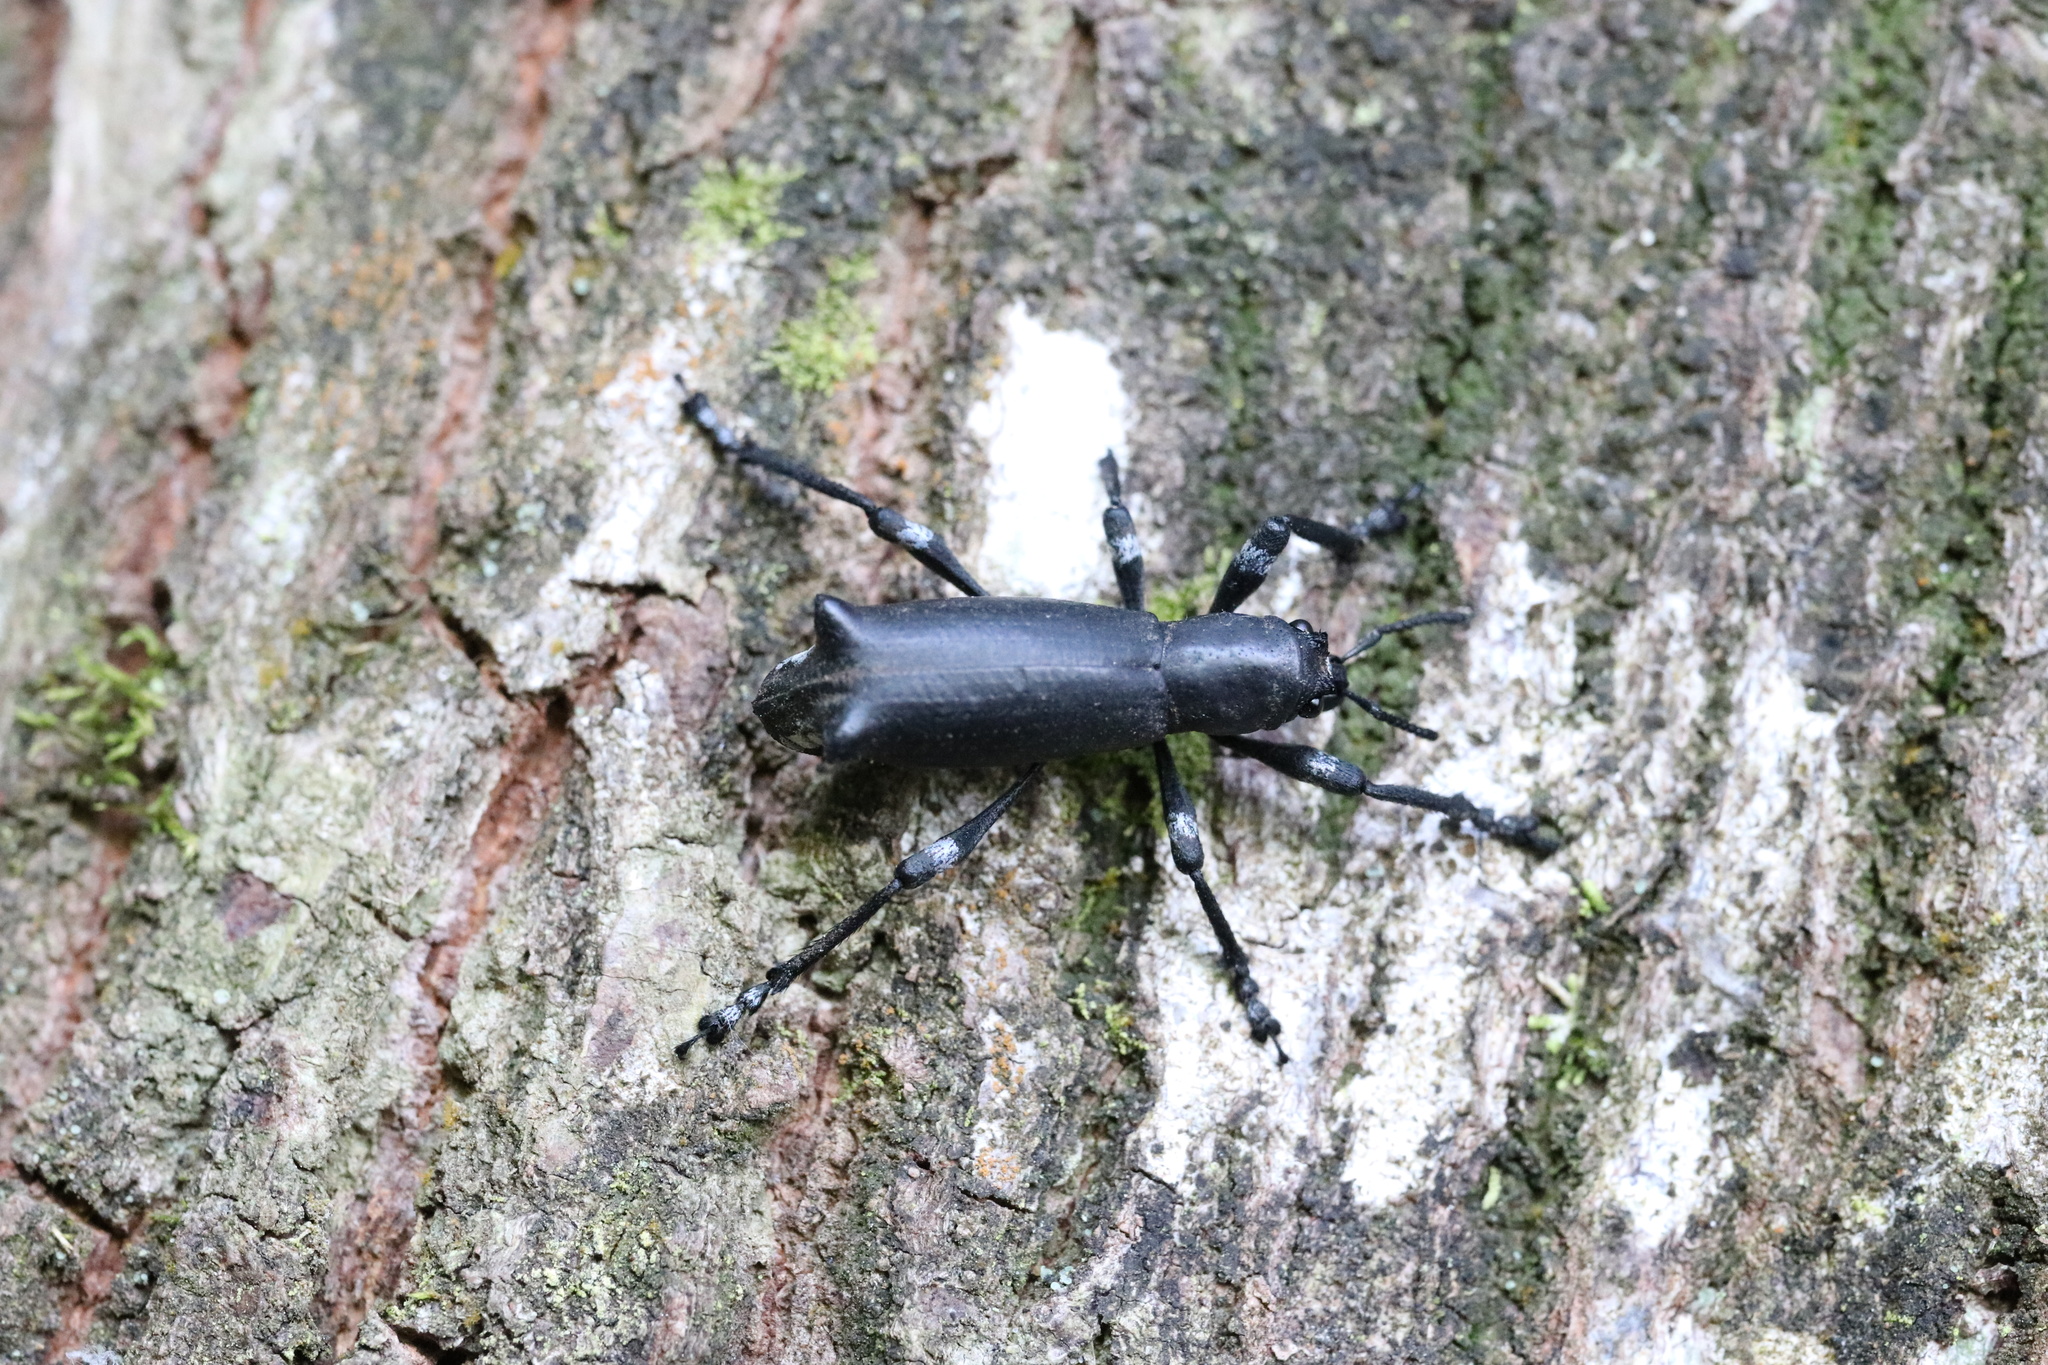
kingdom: Animalia
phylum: Arthropoda
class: Insecta
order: Coleoptera
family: Curculionidae
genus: Aegorhinus
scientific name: Aegorhinus
